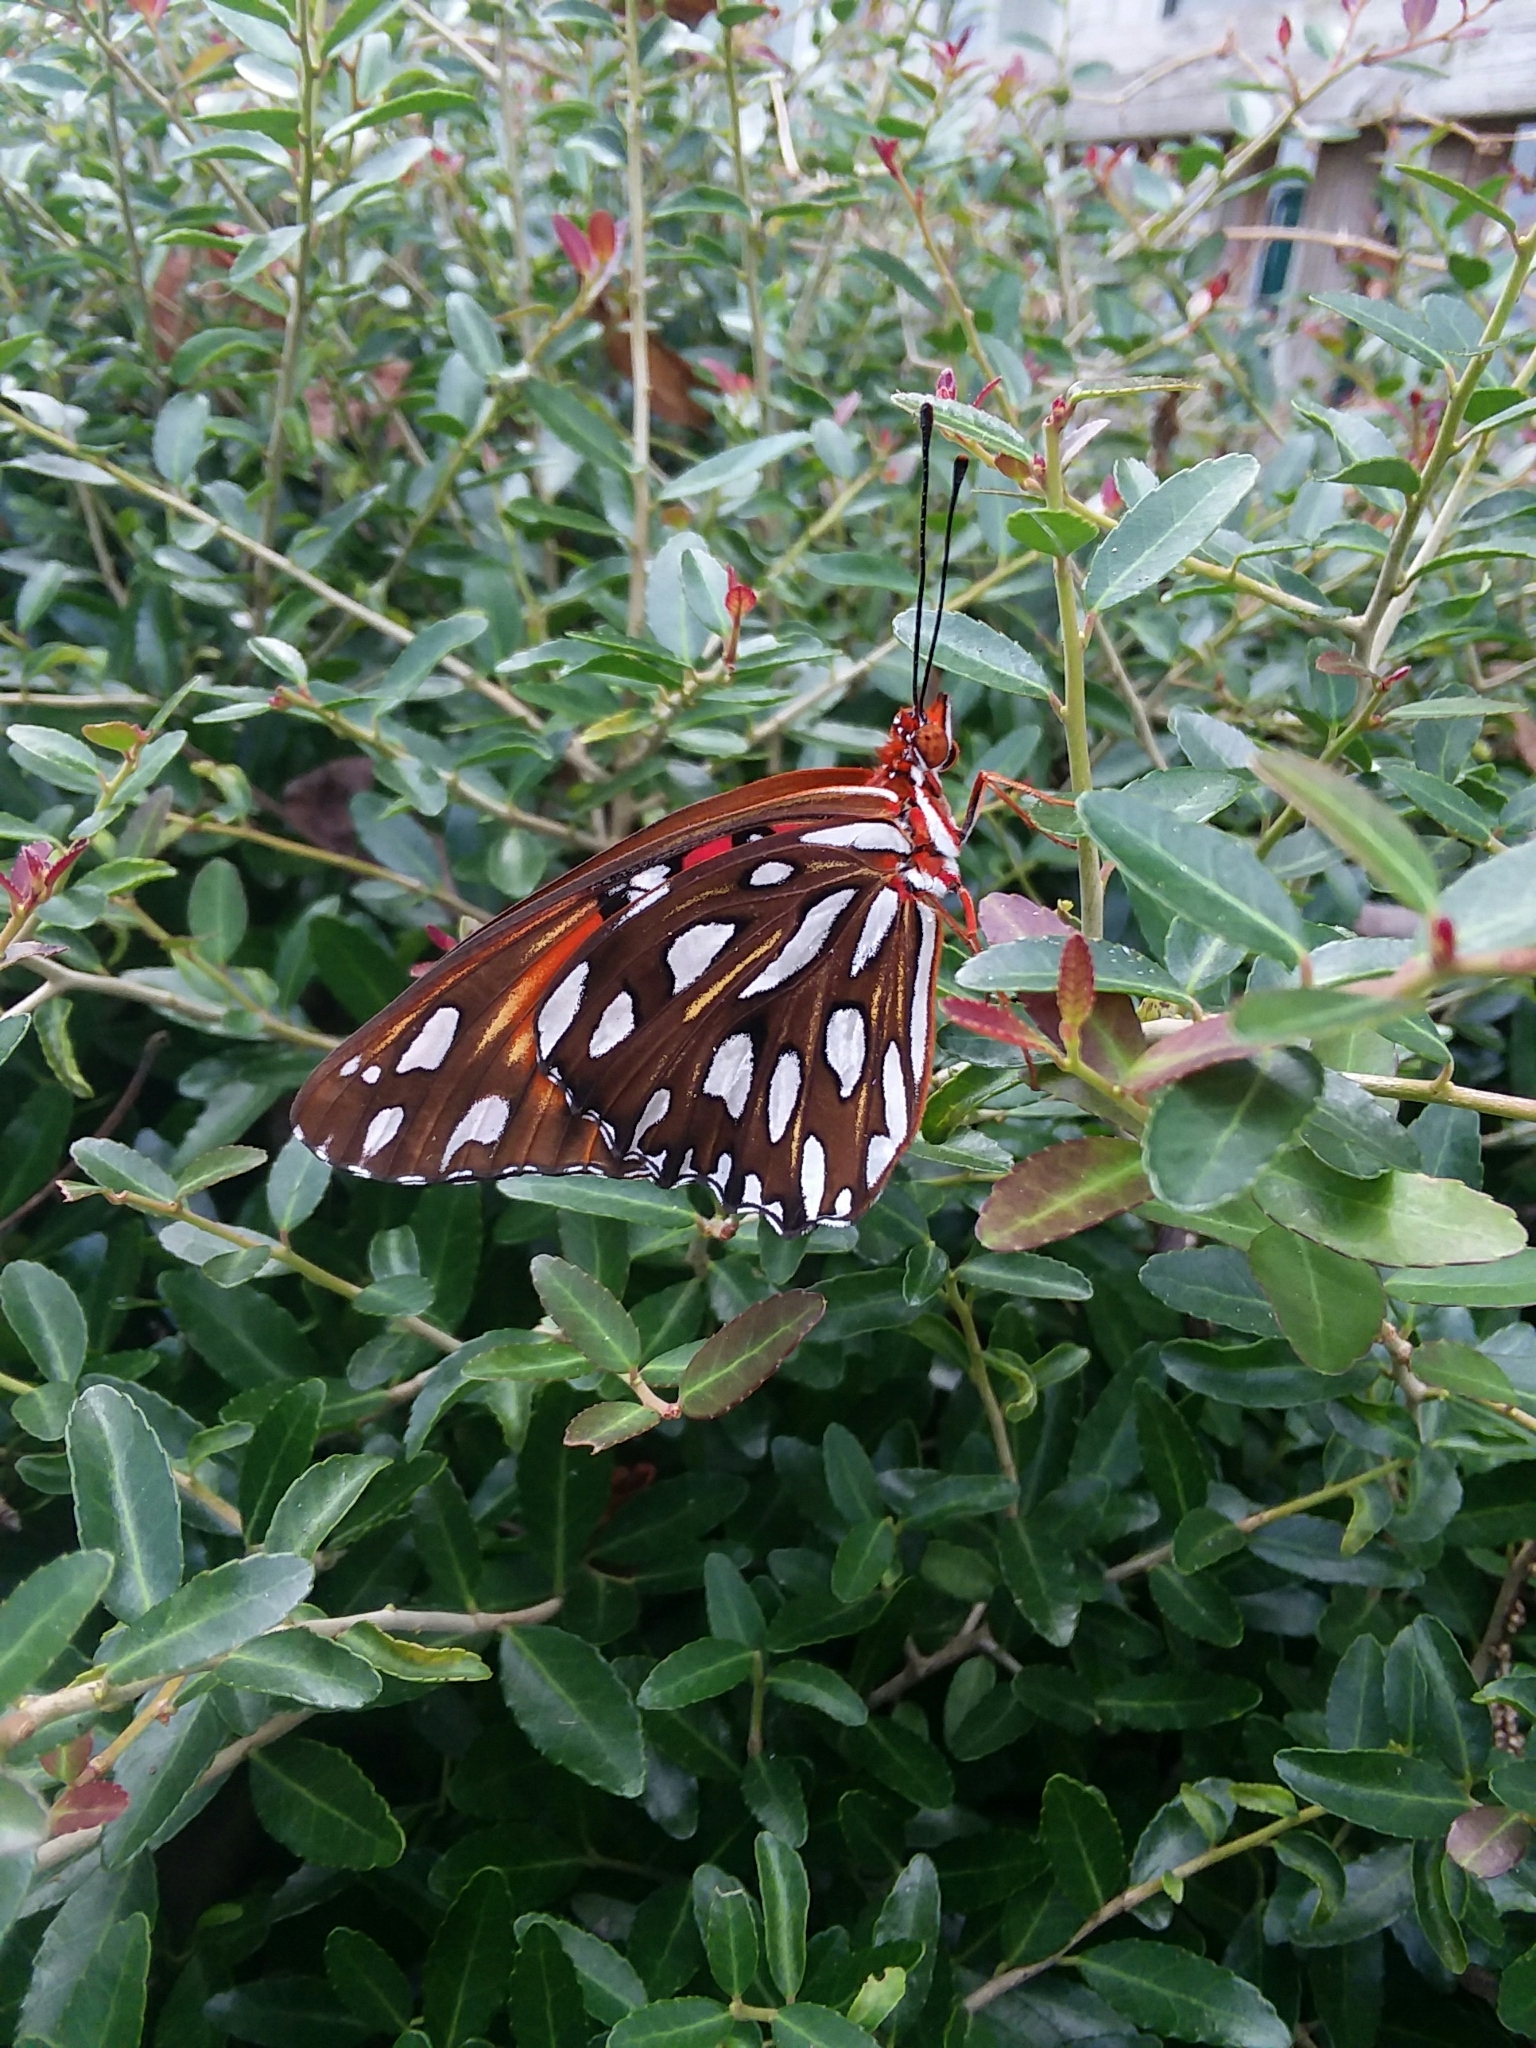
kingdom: Animalia
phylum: Arthropoda
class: Insecta
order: Lepidoptera
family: Nymphalidae
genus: Dione
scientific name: Dione vanillae
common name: Gulf fritillary
